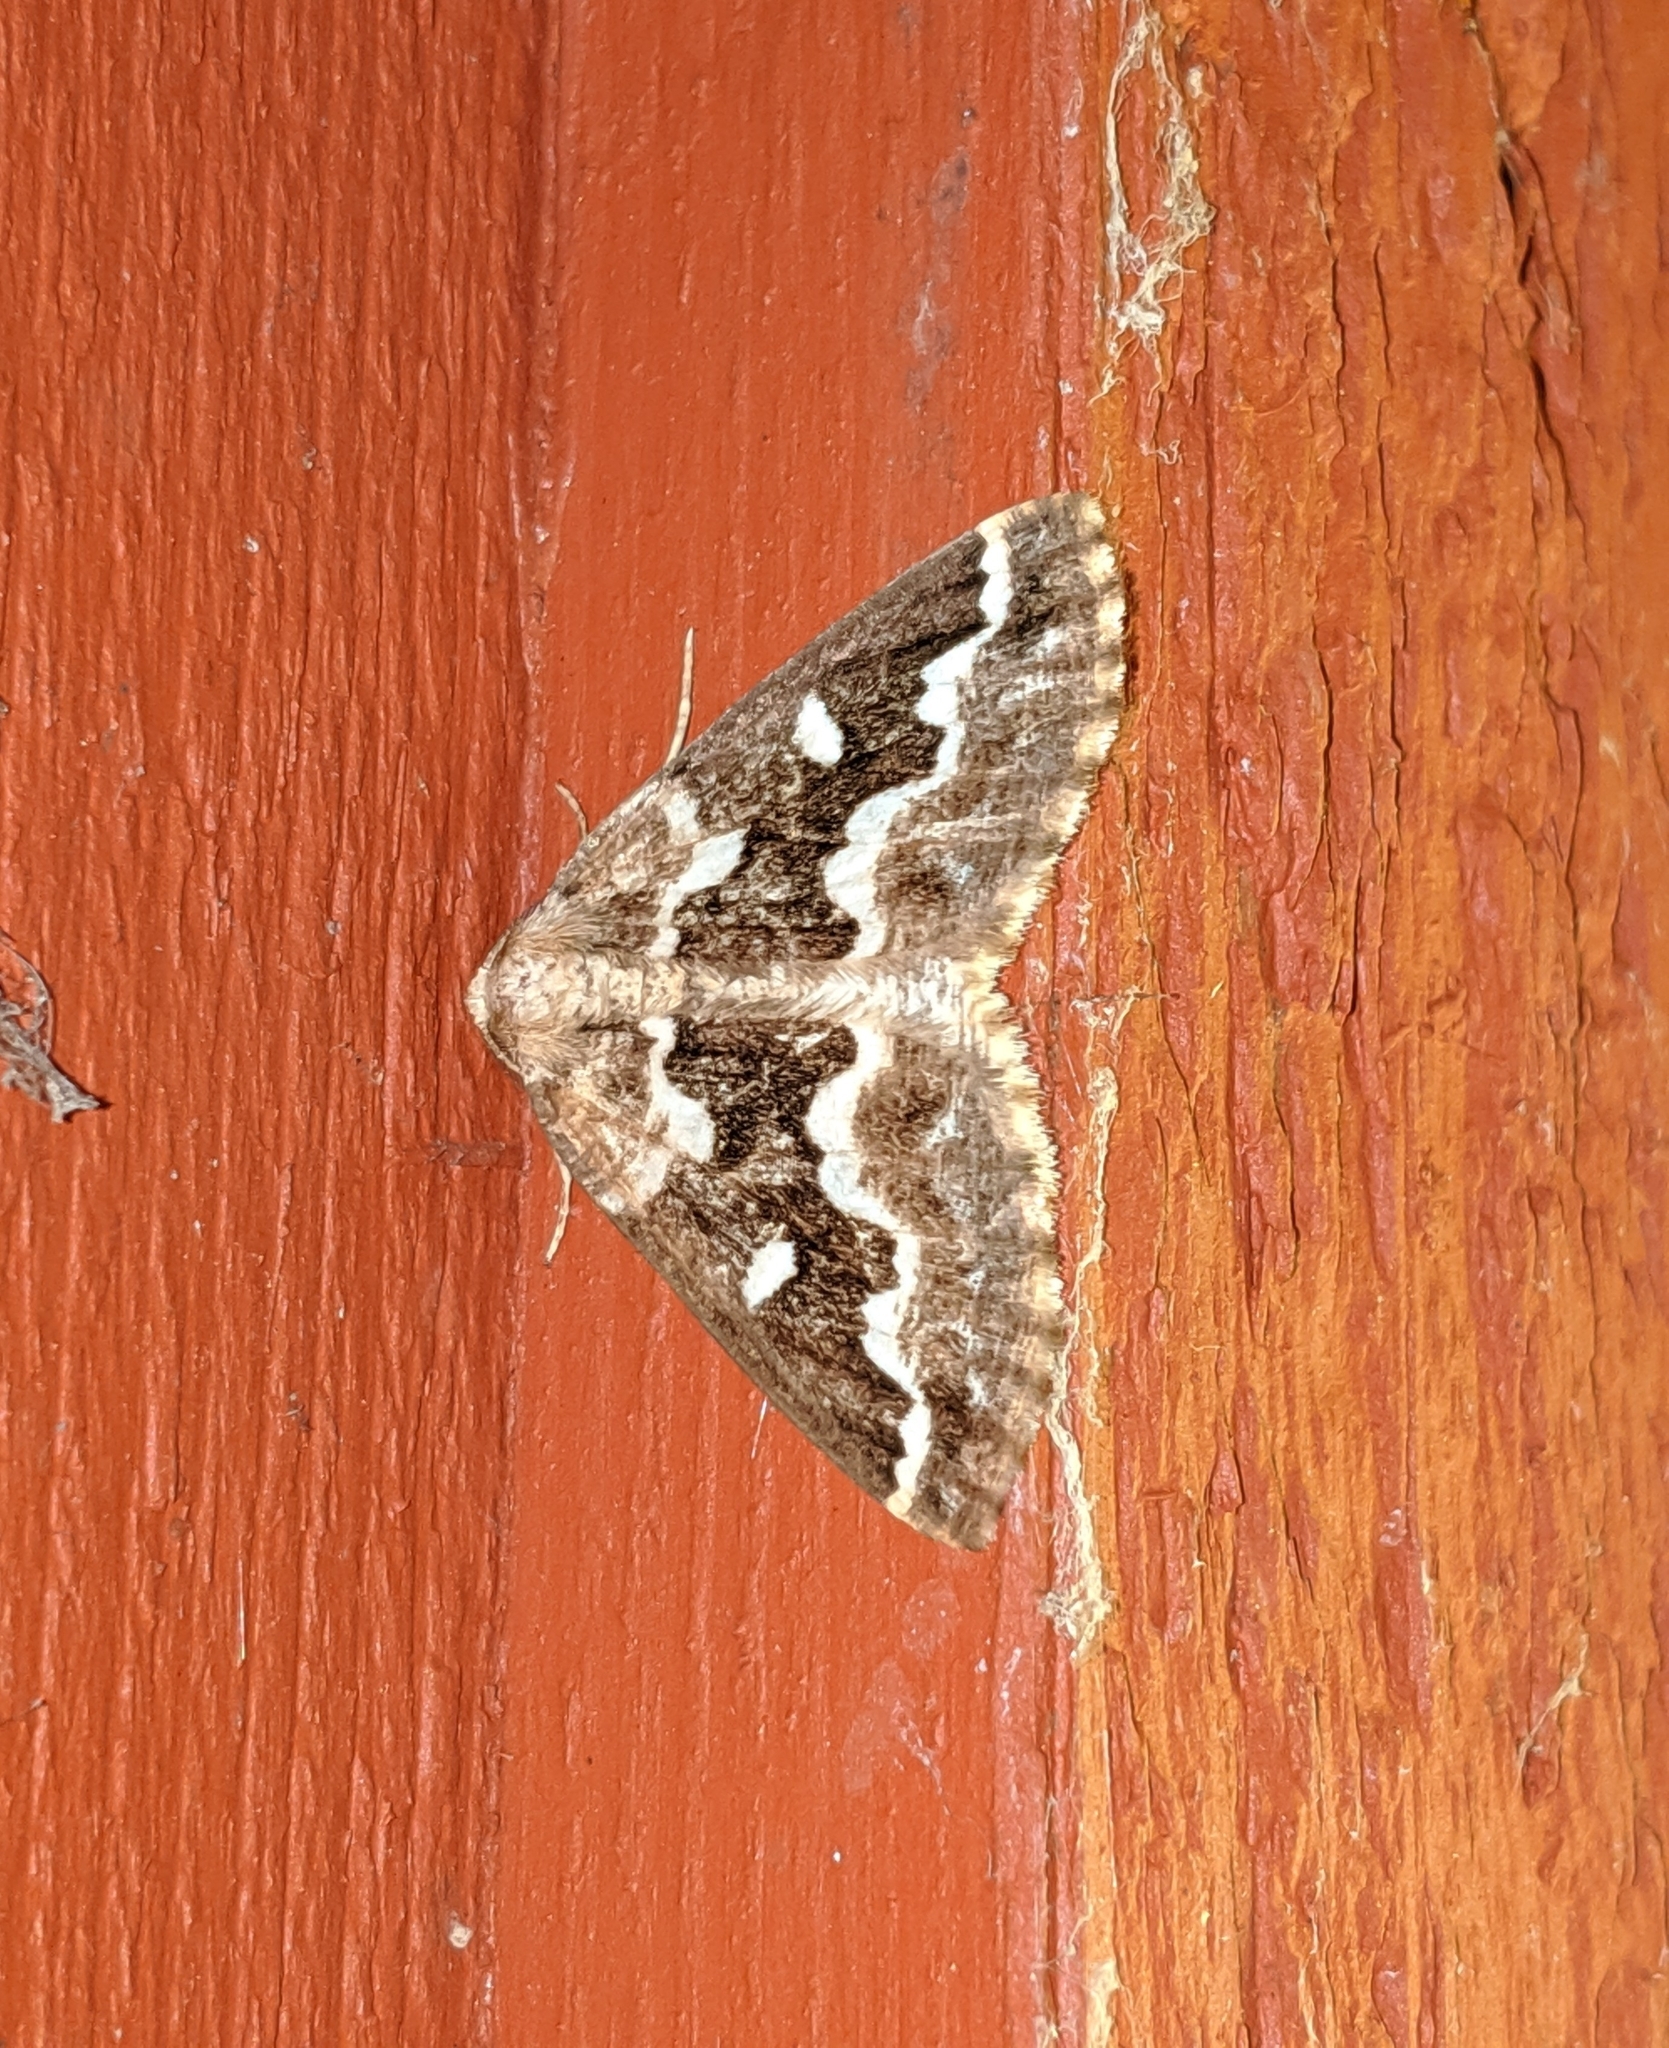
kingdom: Animalia
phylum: Arthropoda
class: Insecta
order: Lepidoptera
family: Geometridae
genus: Caripeta
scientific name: Caripeta divisata
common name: Gray spruce looper
